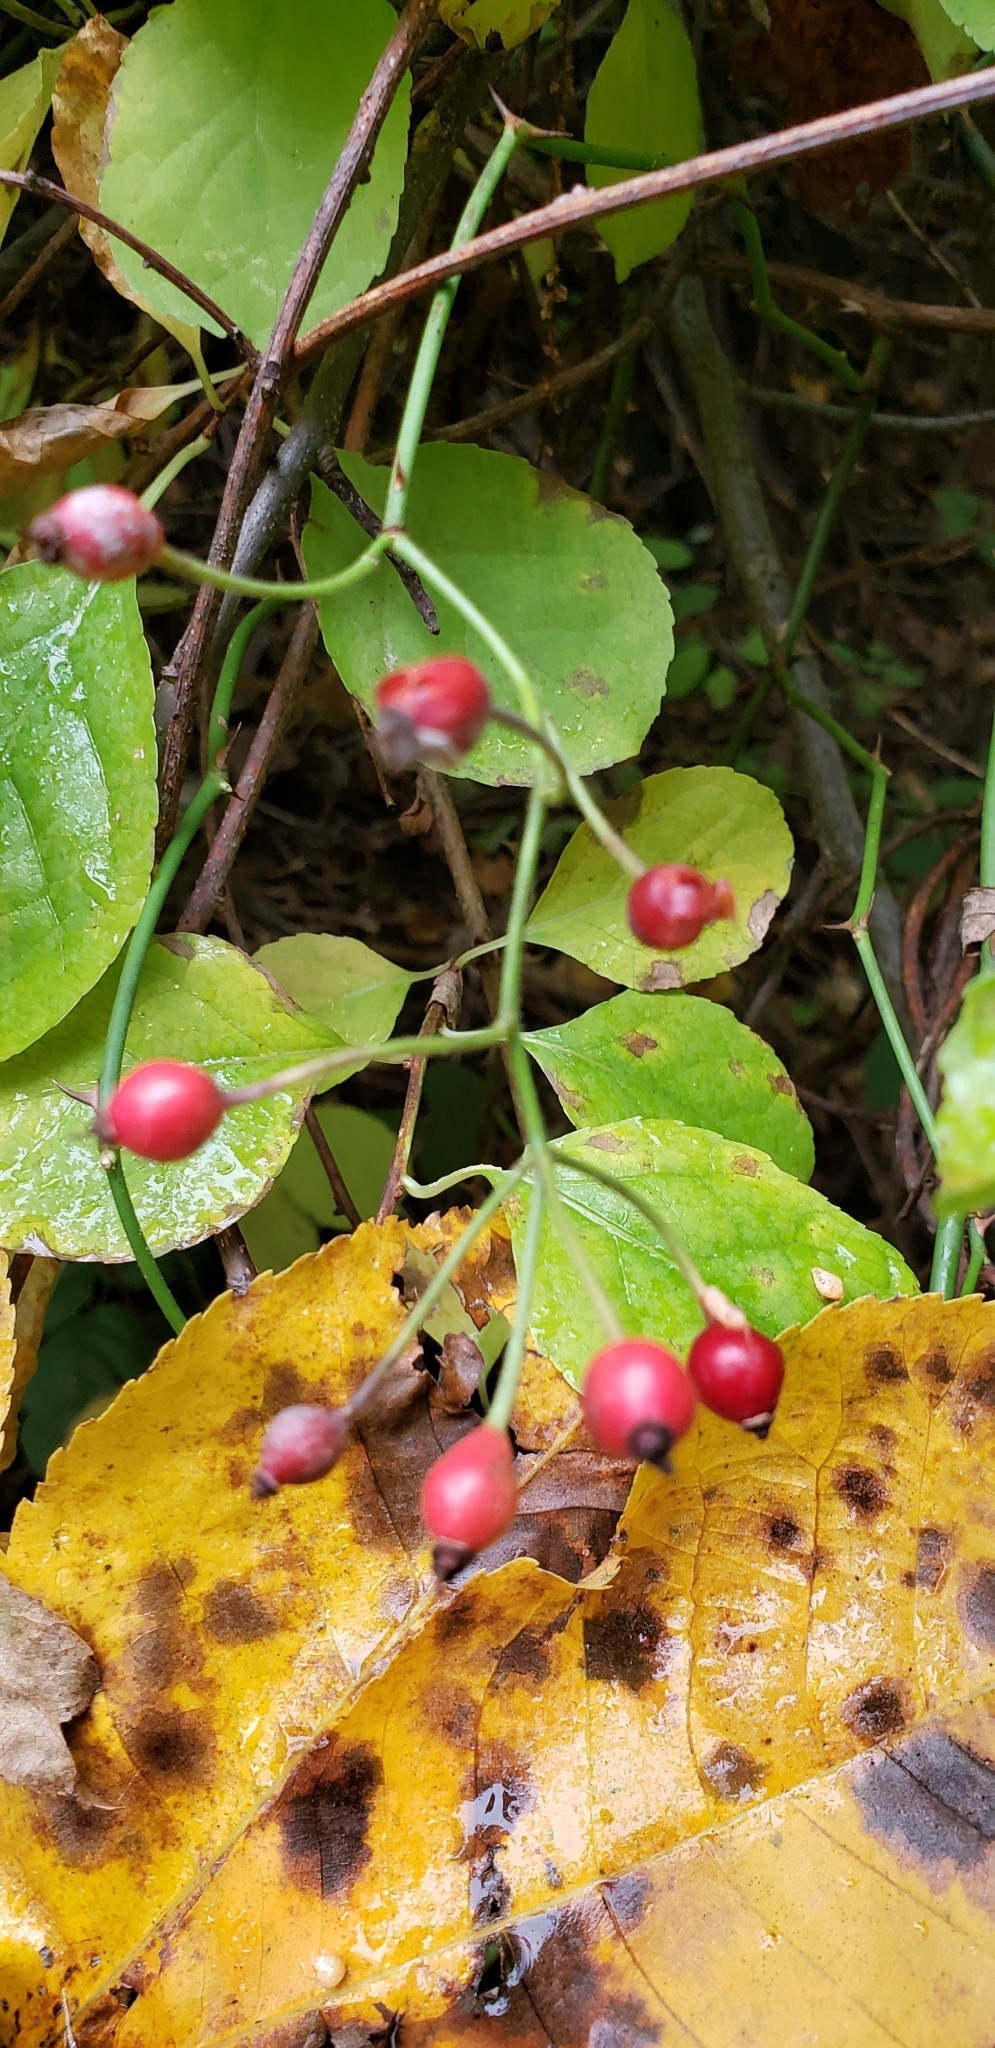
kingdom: Plantae
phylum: Tracheophyta
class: Magnoliopsida
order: Rosales
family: Rosaceae
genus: Rosa
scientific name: Rosa multiflora
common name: Multiflora rose
